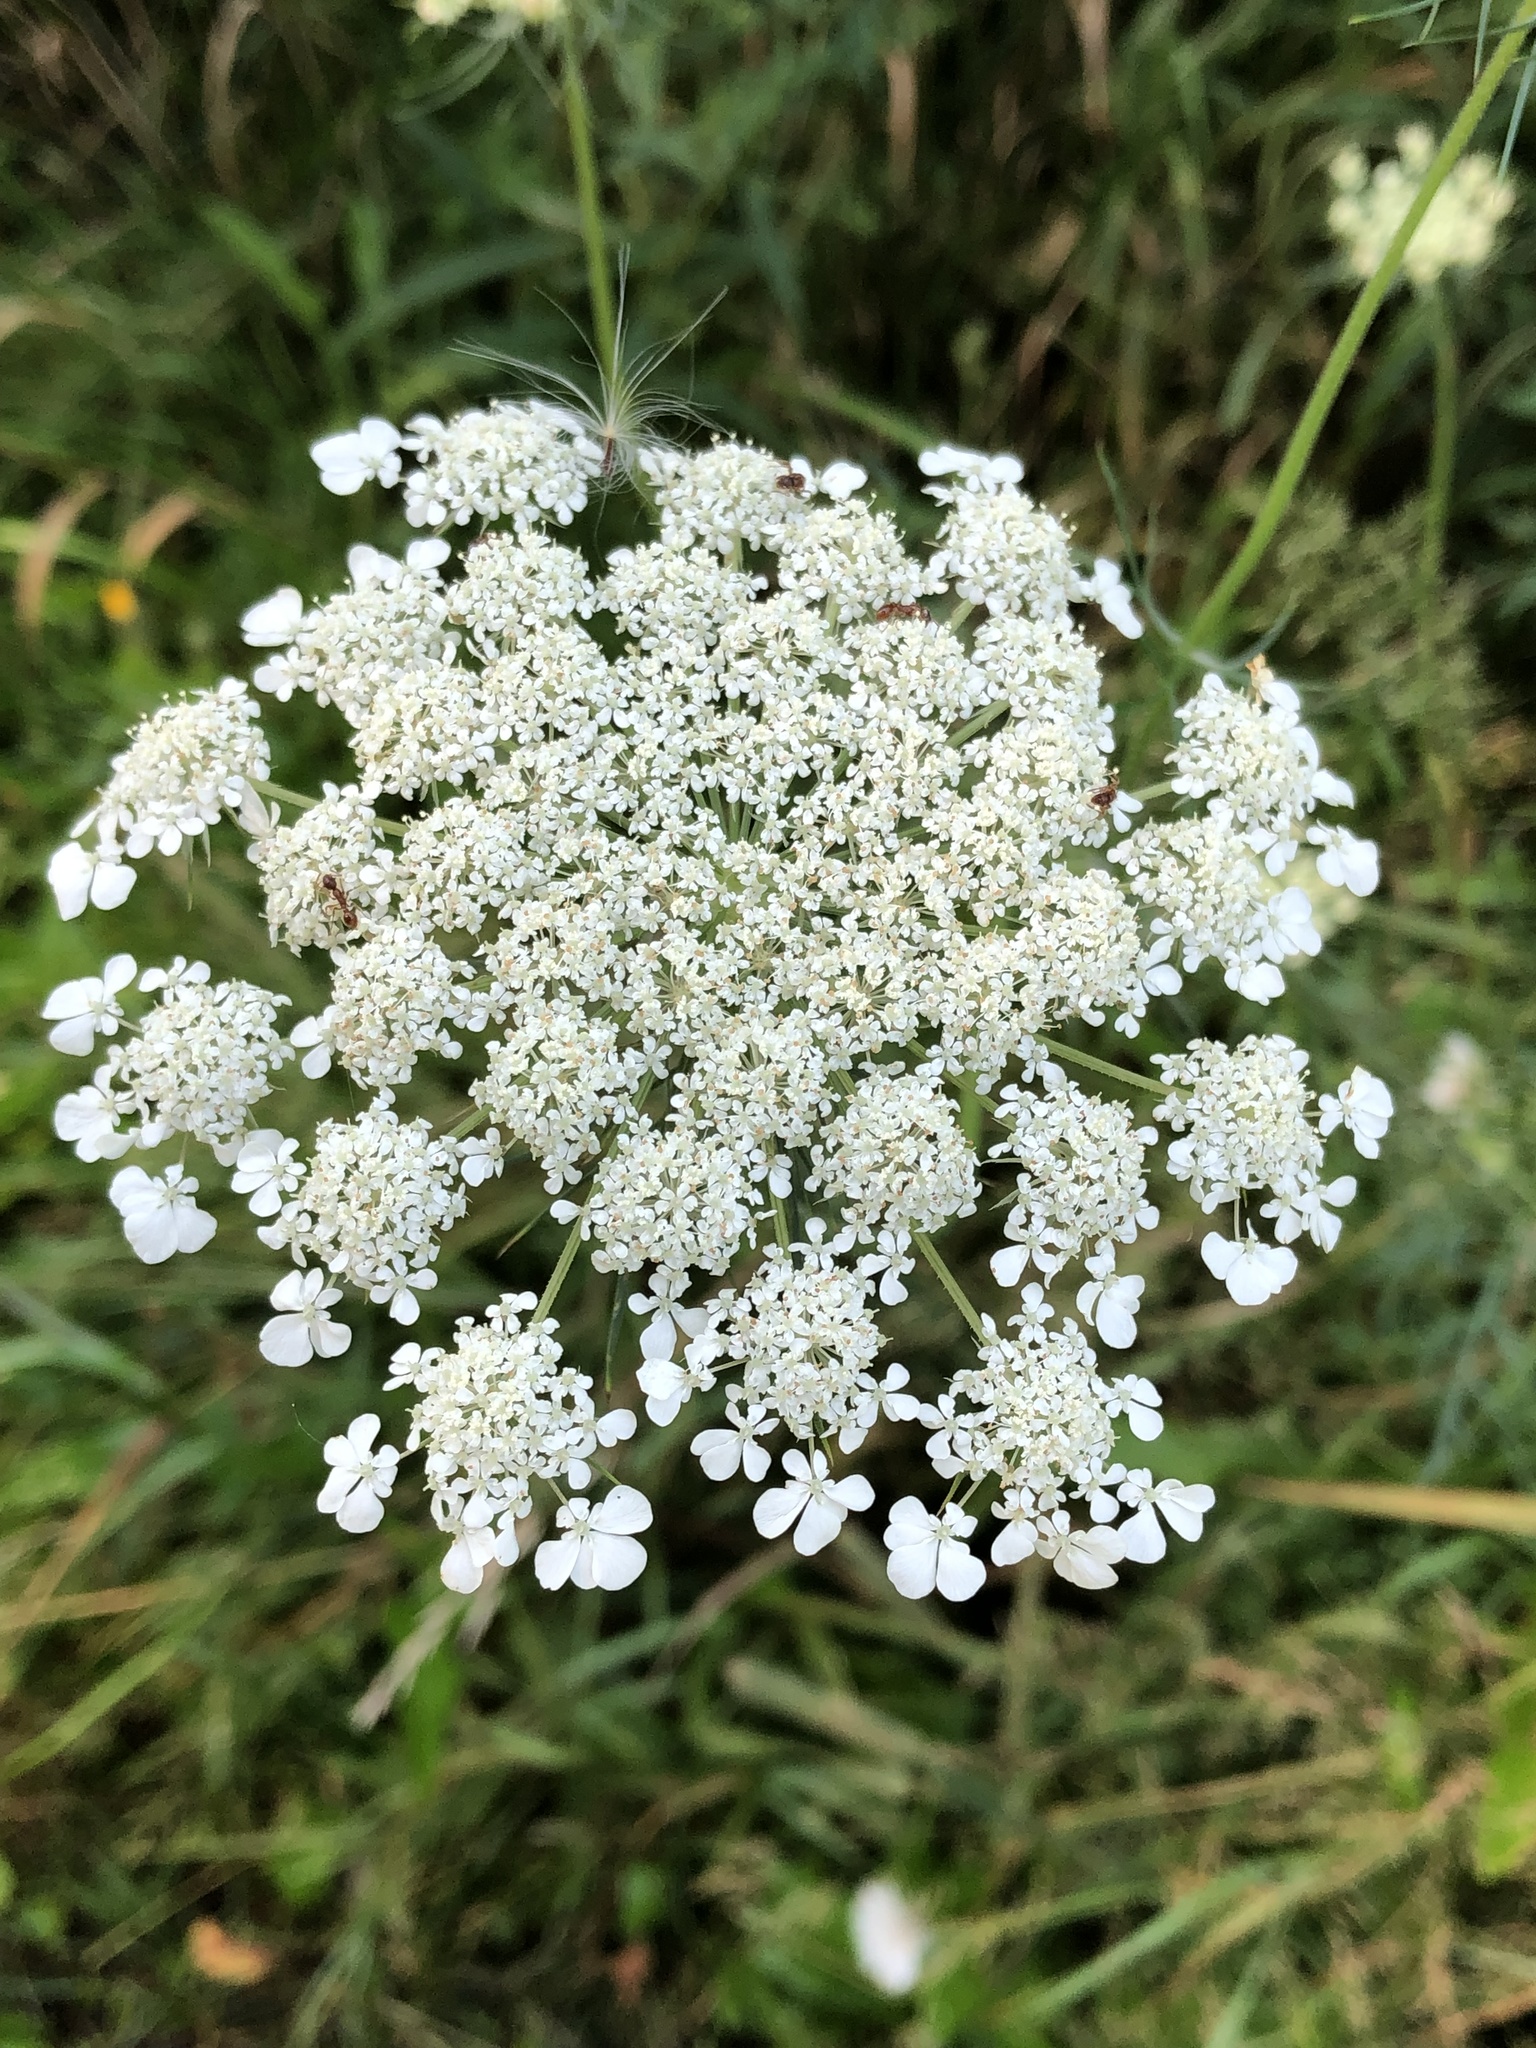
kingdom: Plantae
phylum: Tracheophyta
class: Magnoliopsida
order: Apiales
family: Apiaceae
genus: Daucus
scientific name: Daucus carota
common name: Wild carrot
